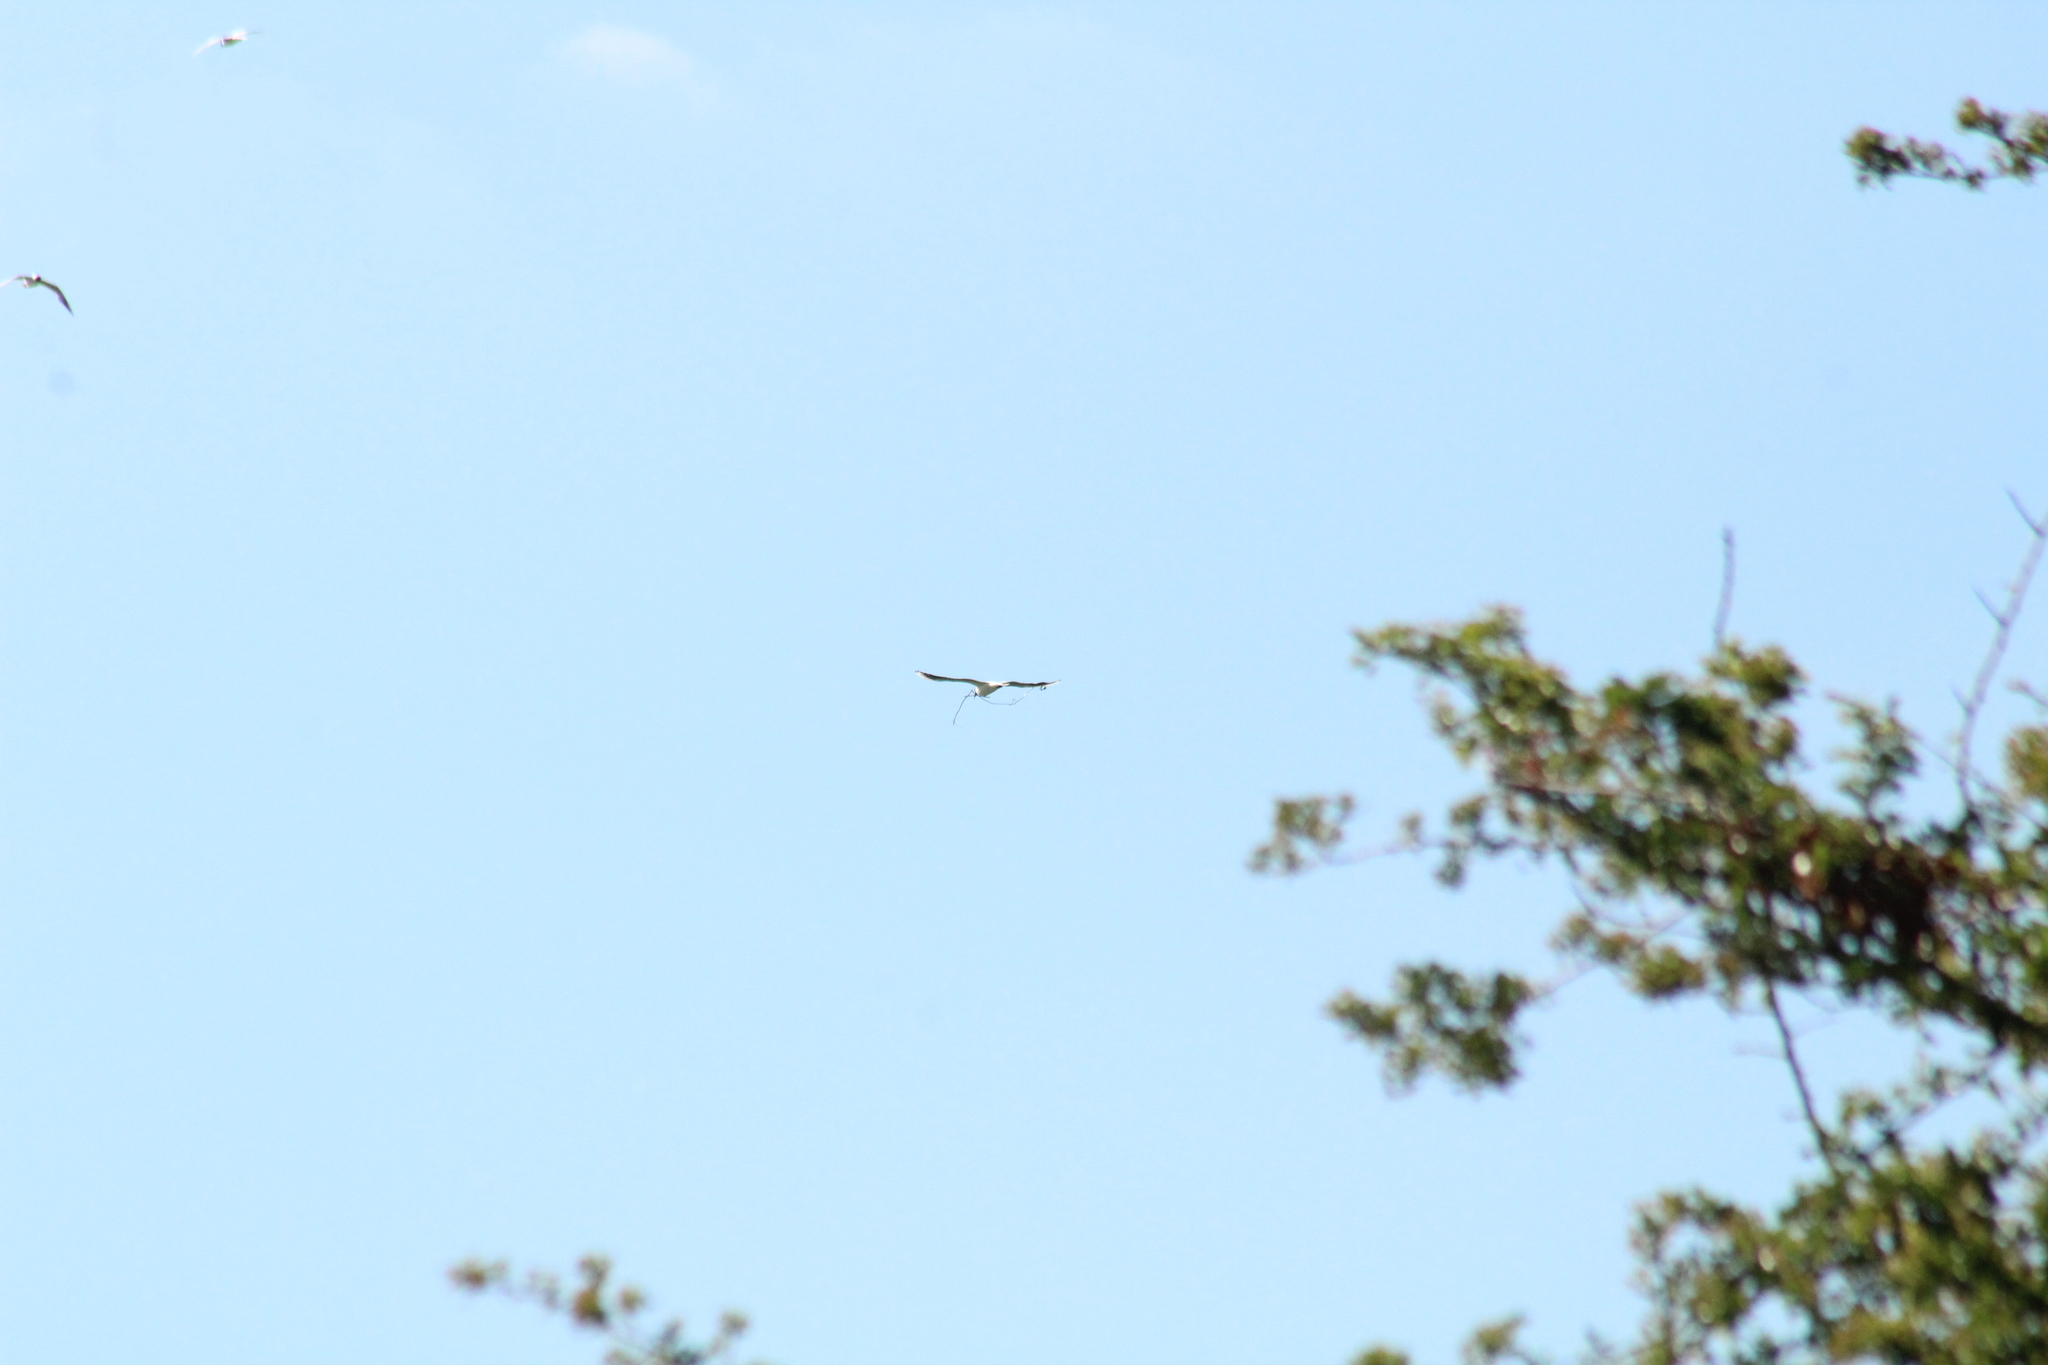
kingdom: Animalia
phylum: Chordata
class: Aves
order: Charadriiformes
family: Laridae
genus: Chroicocephalus
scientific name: Chroicocephalus ridibundus
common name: Black-headed gull
